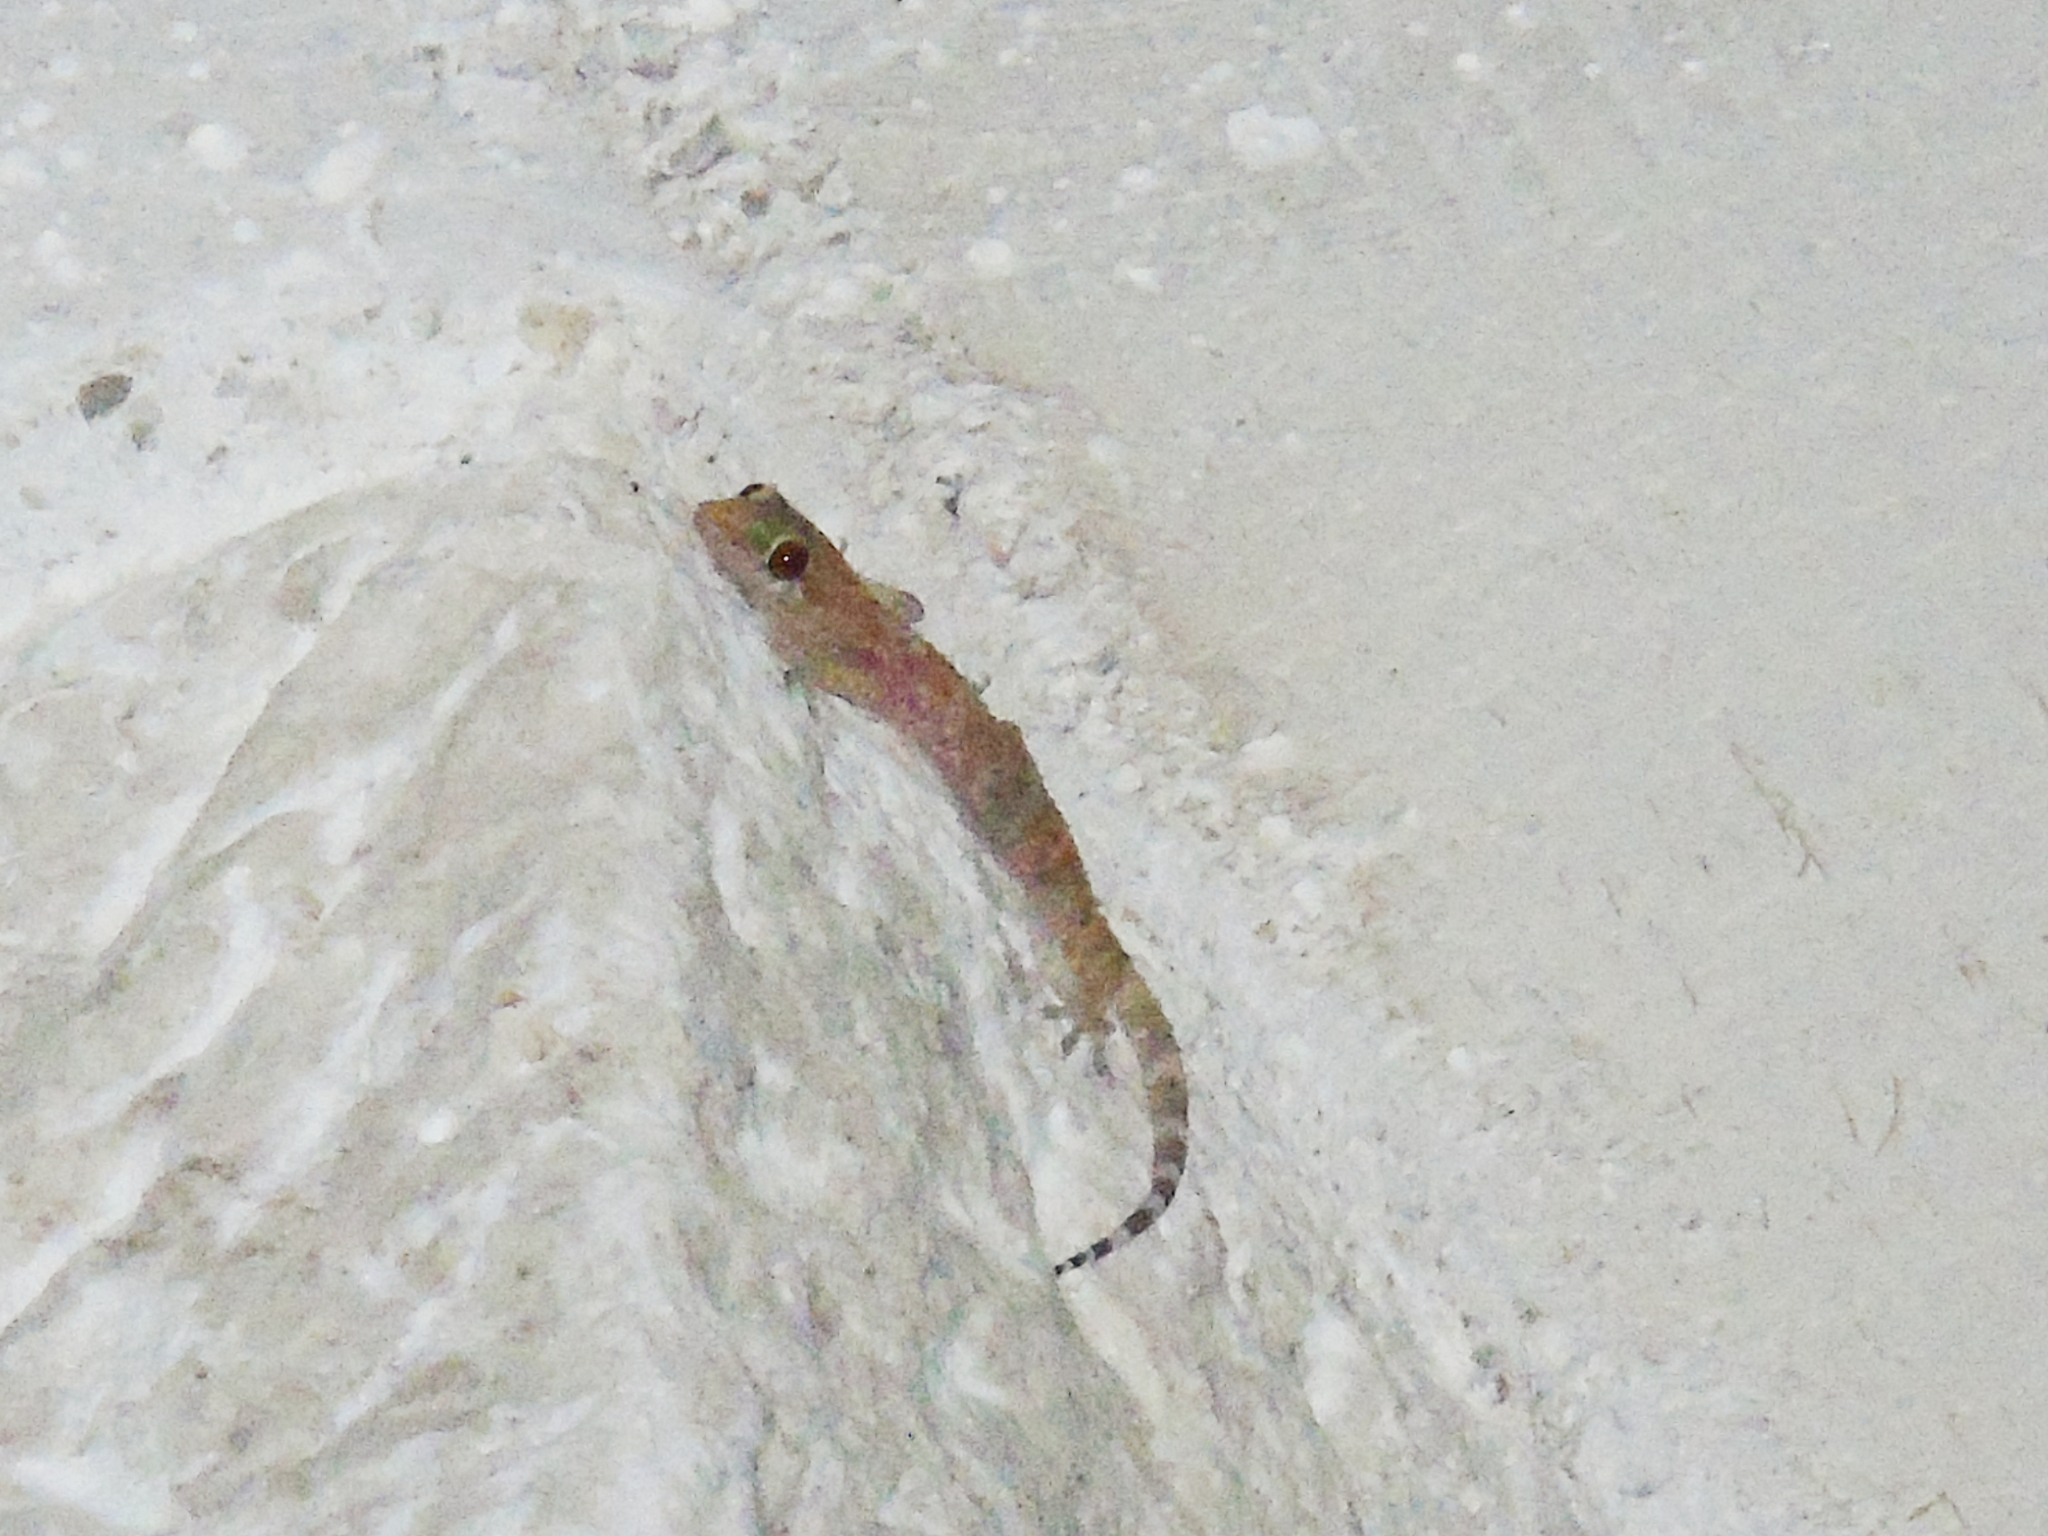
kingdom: Animalia
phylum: Chordata
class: Squamata
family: Gekkonidae
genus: Hemidactylus
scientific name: Hemidactylus turcicus
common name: Turkish gecko
